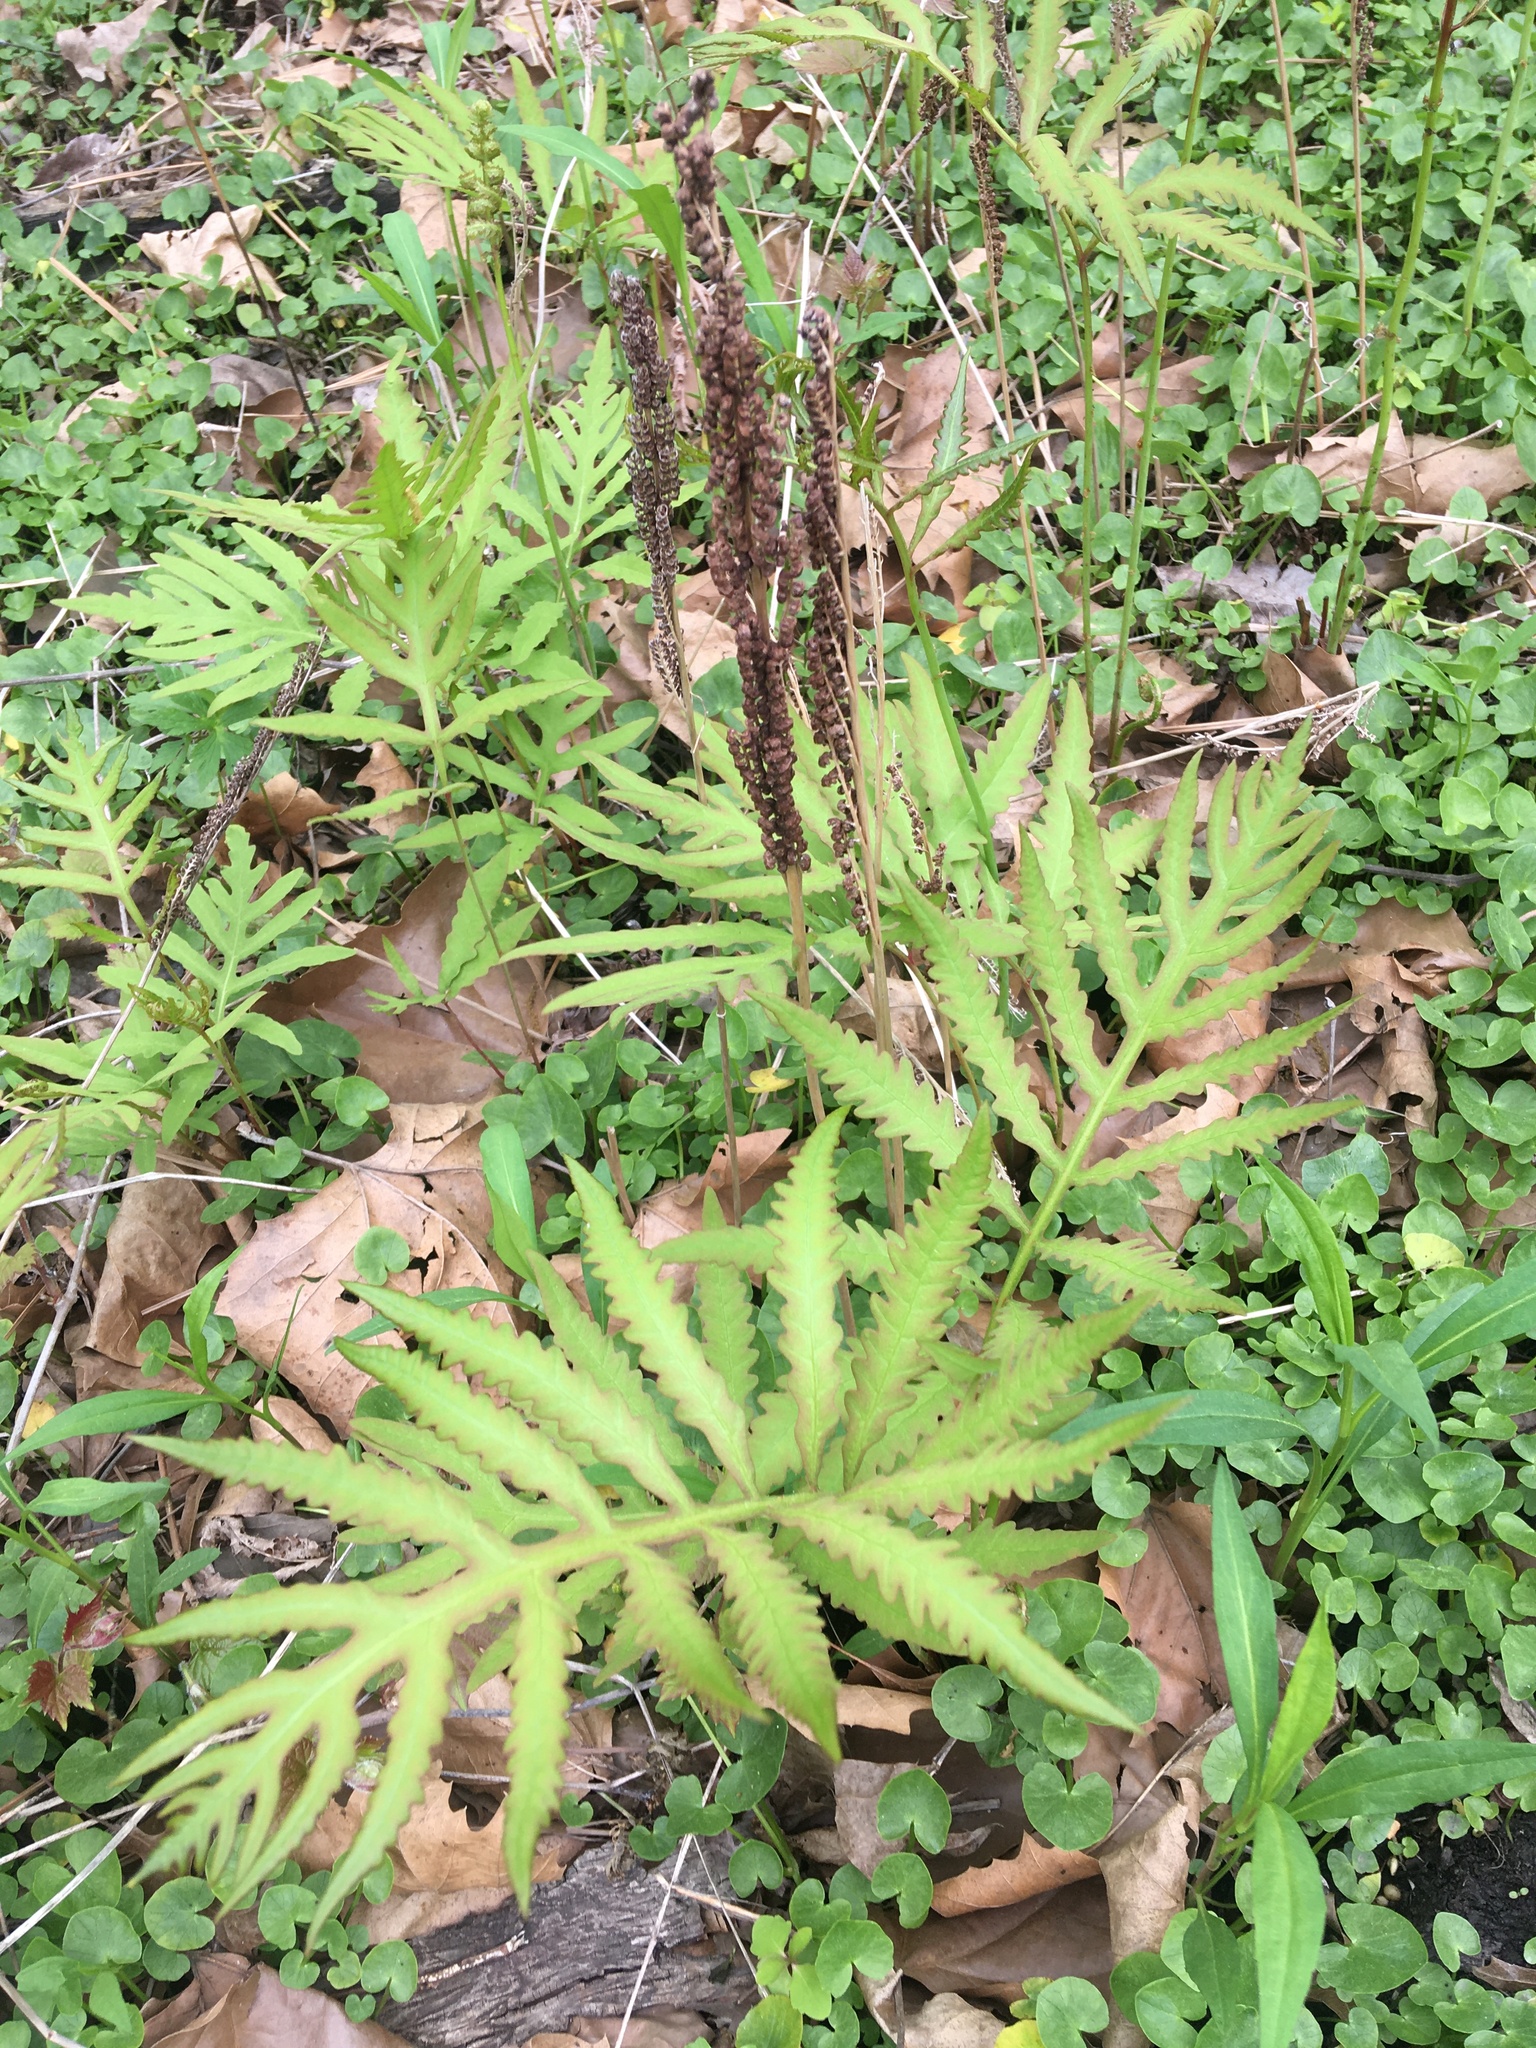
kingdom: Plantae
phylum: Tracheophyta
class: Polypodiopsida
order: Polypodiales
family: Onocleaceae
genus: Onoclea
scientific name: Onoclea sensibilis
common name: Sensitive fern
